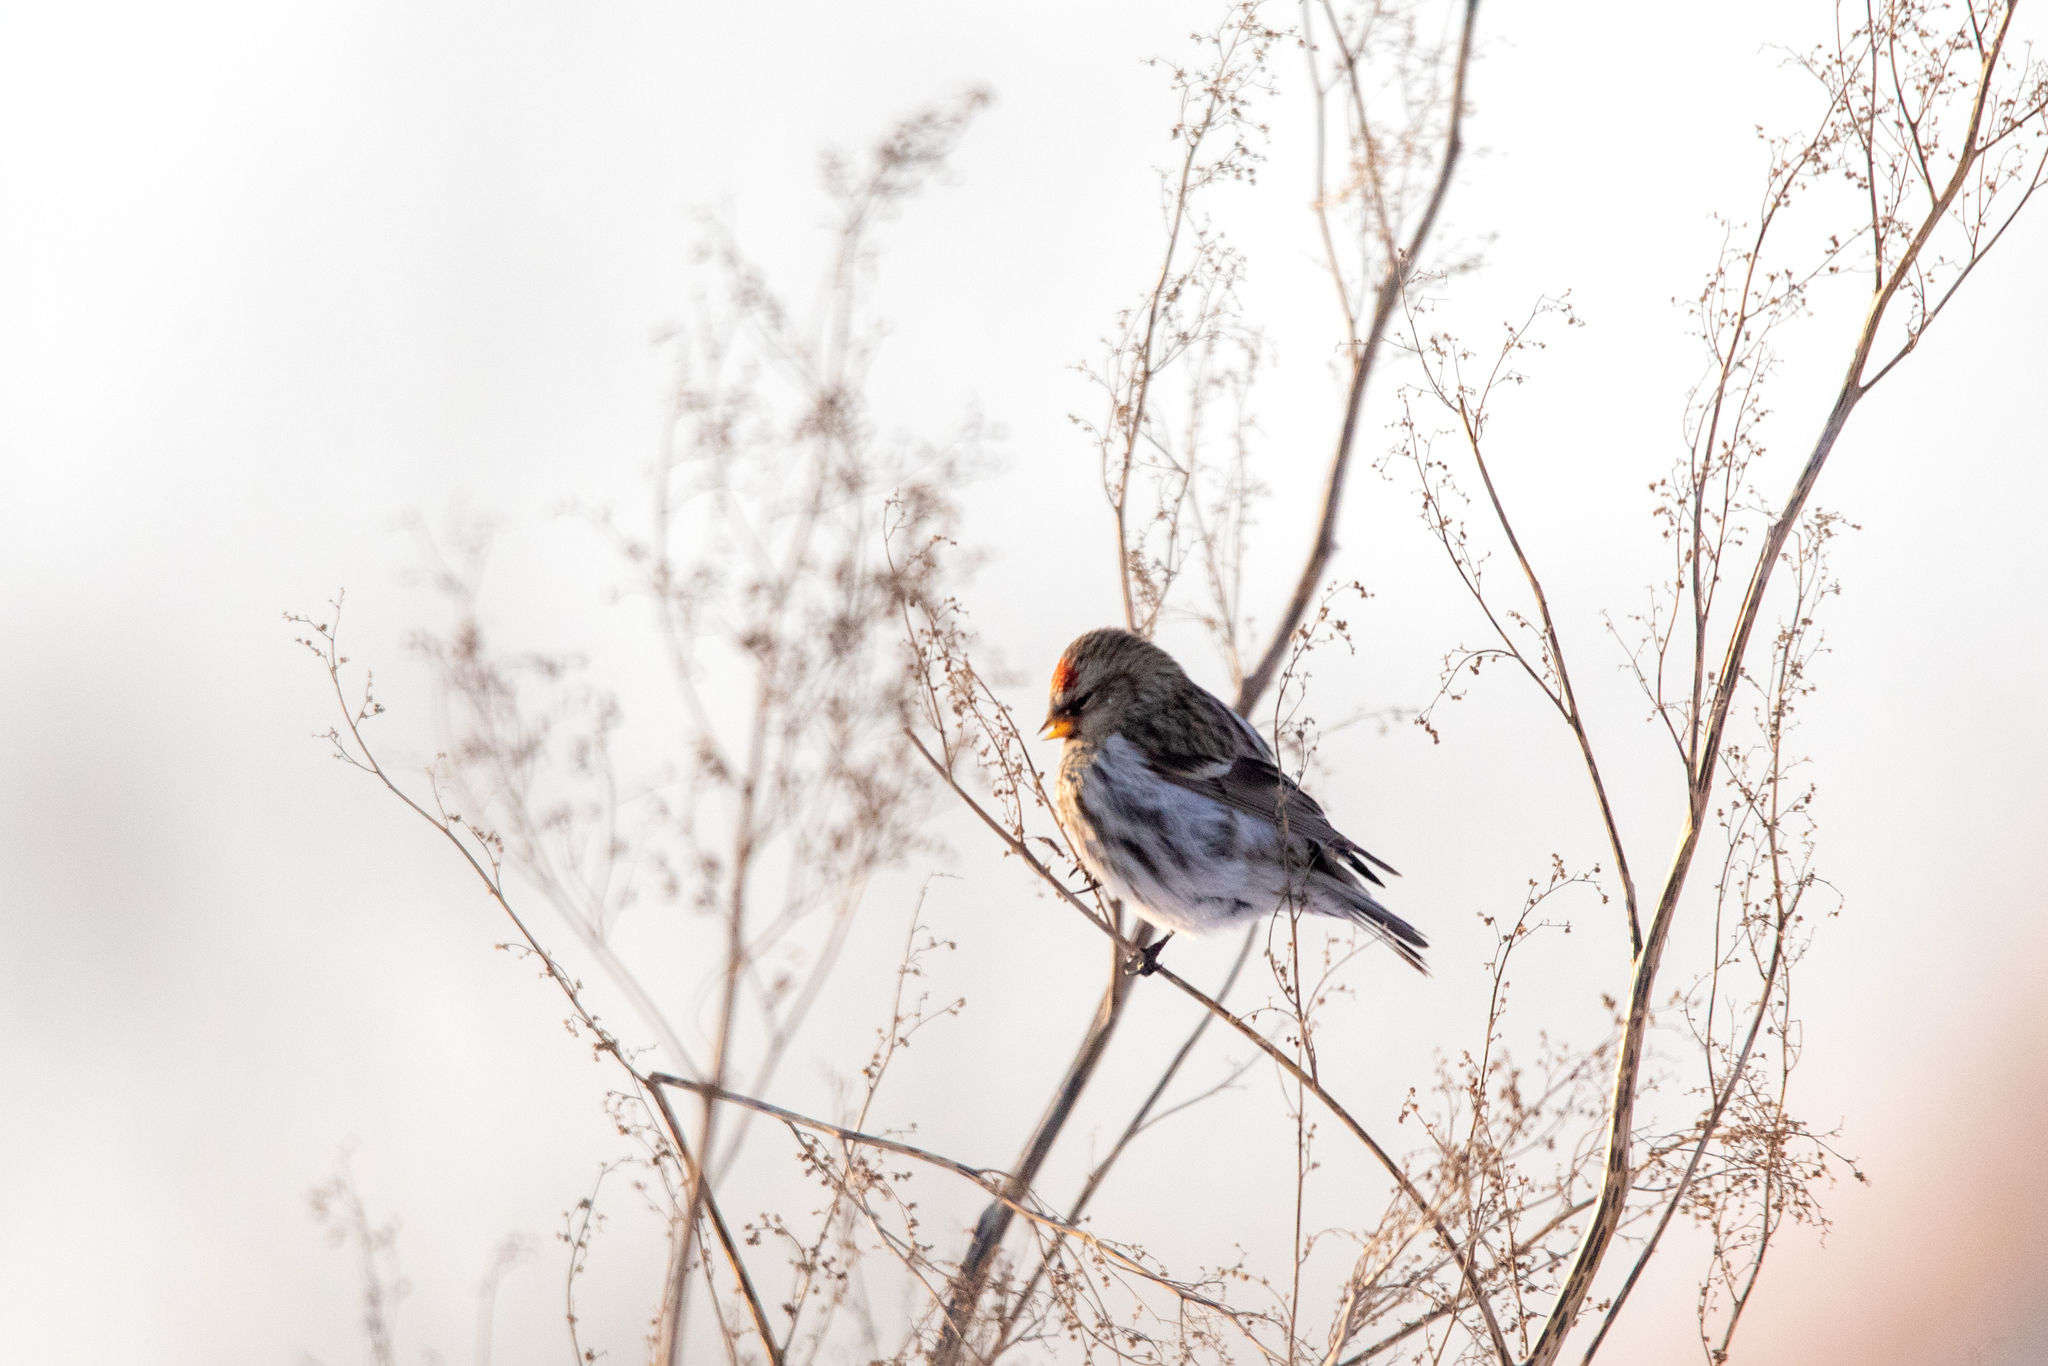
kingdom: Animalia
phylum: Chordata
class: Aves
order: Passeriformes
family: Fringillidae
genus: Acanthis
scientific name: Acanthis flammea
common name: Common redpoll
